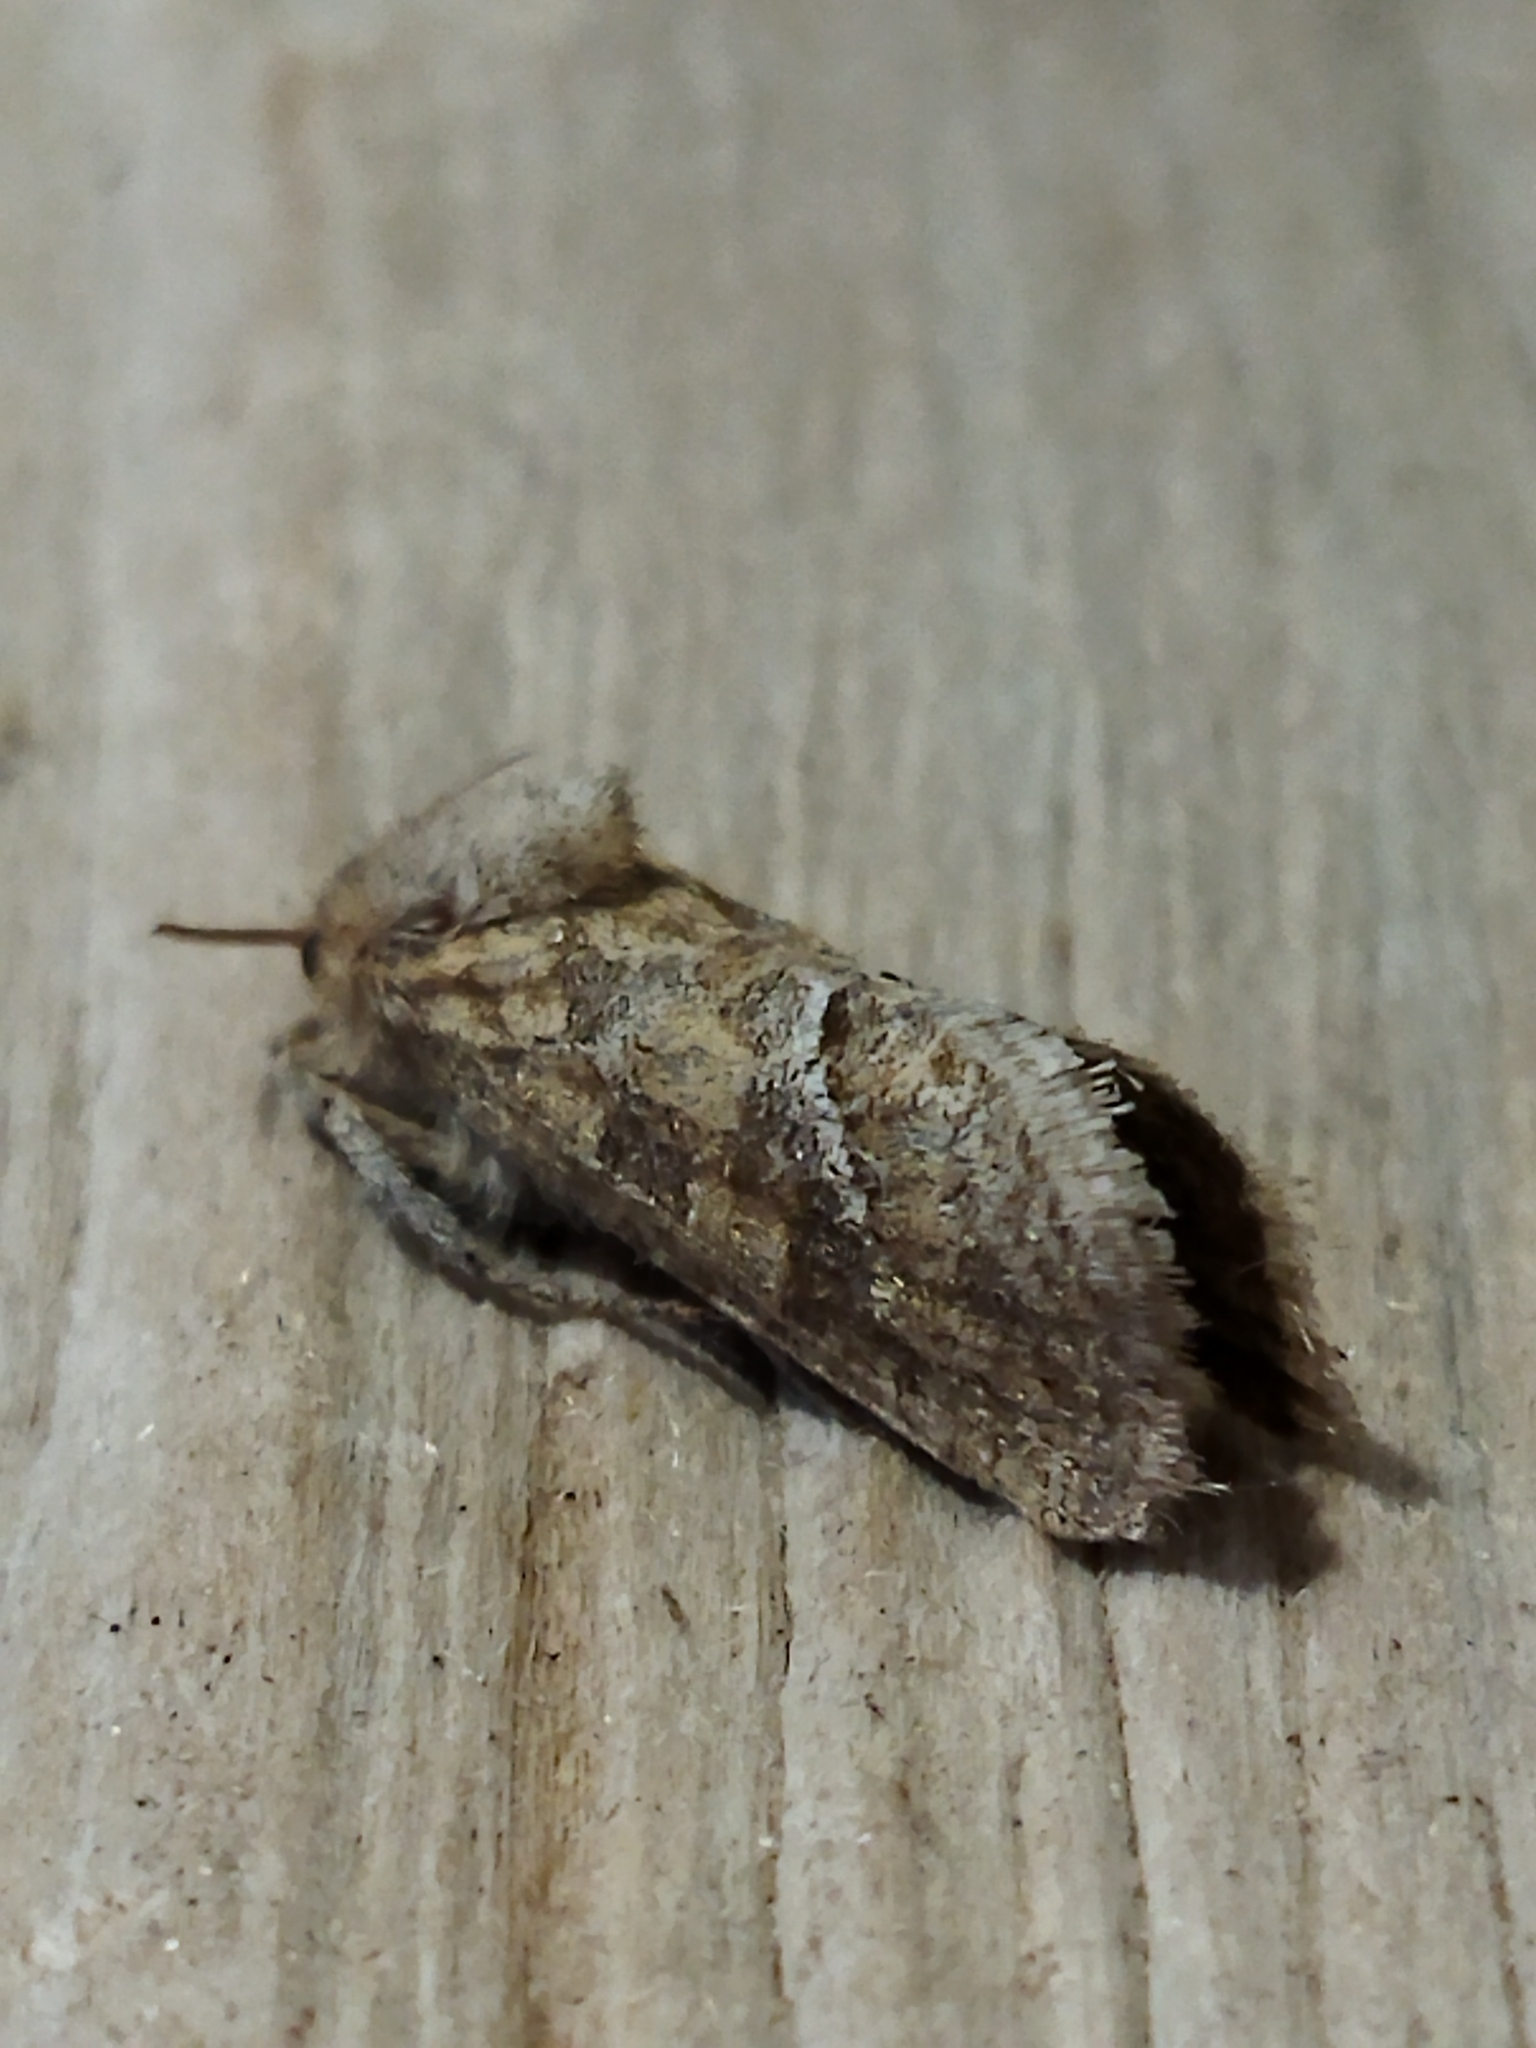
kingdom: Animalia
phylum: Arthropoda
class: Insecta
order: Lepidoptera
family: Hepialidae
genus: Triodia
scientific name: Triodia amasinus
